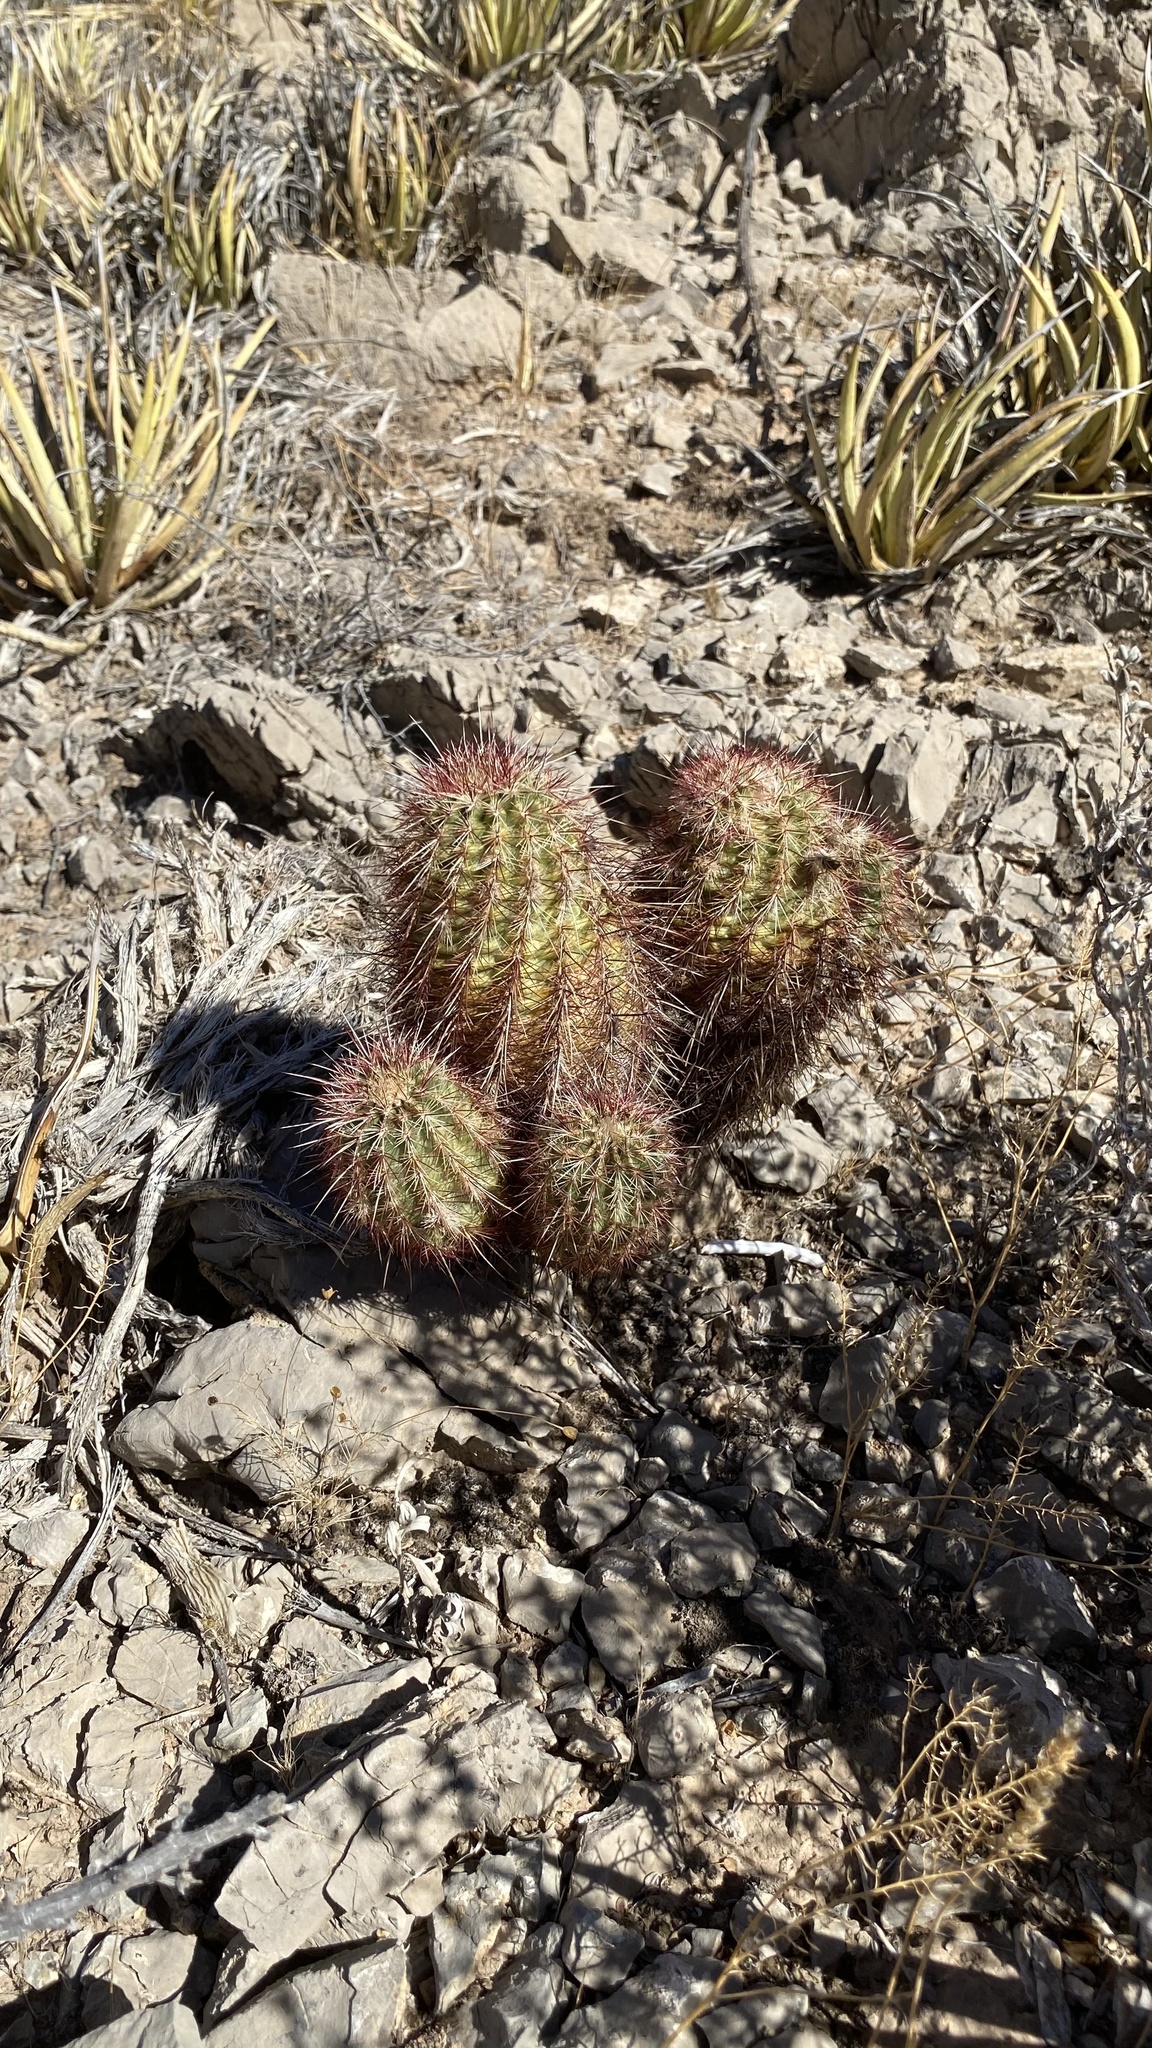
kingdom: Plantae
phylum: Tracheophyta
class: Magnoliopsida
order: Caryophyllales
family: Cactaceae
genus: Echinocereus
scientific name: Echinocereus viridiflorus
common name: Nylon hedgehog cactus
